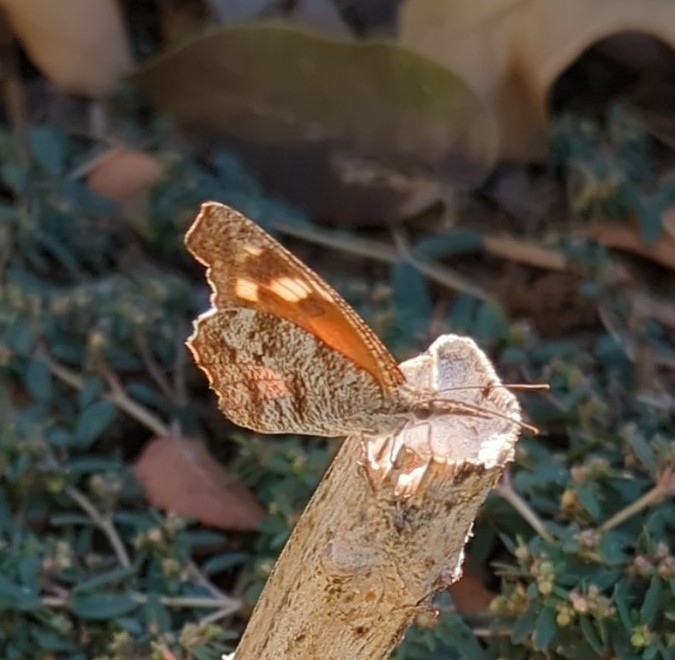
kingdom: Animalia
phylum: Arthropoda
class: Insecta
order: Lepidoptera
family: Nymphalidae
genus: Libytheana
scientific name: Libytheana carinenta
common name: American snout
